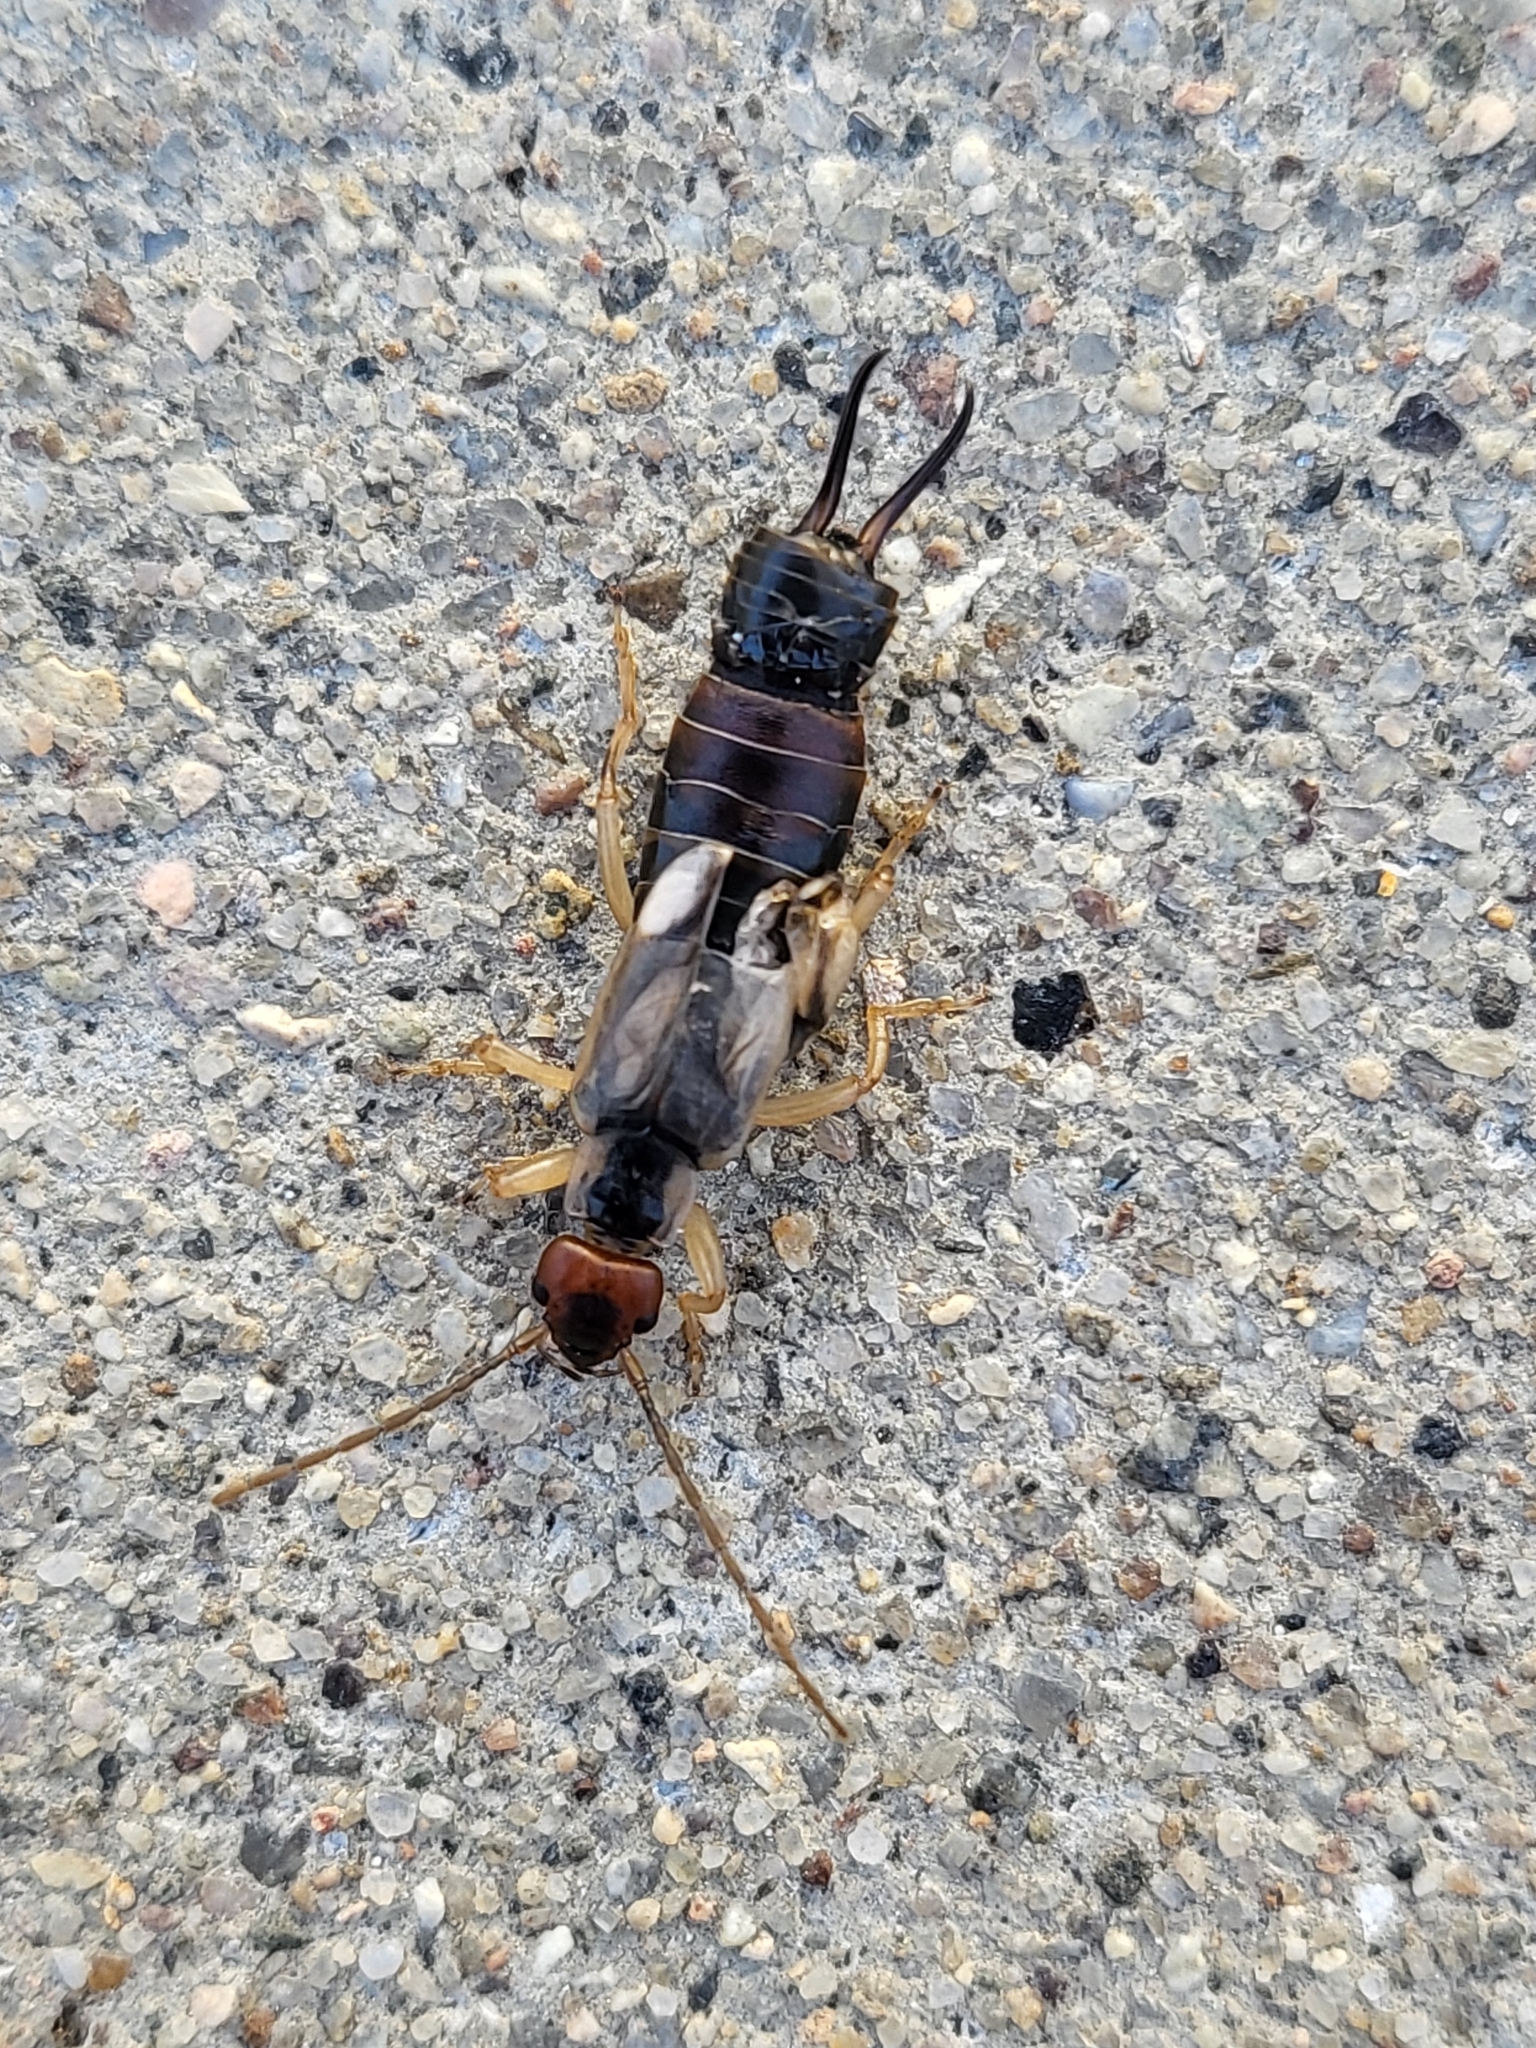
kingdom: Animalia
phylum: Arthropoda
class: Insecta
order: Dermaptera
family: Forficulidae
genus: Forficula
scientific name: Forficula
